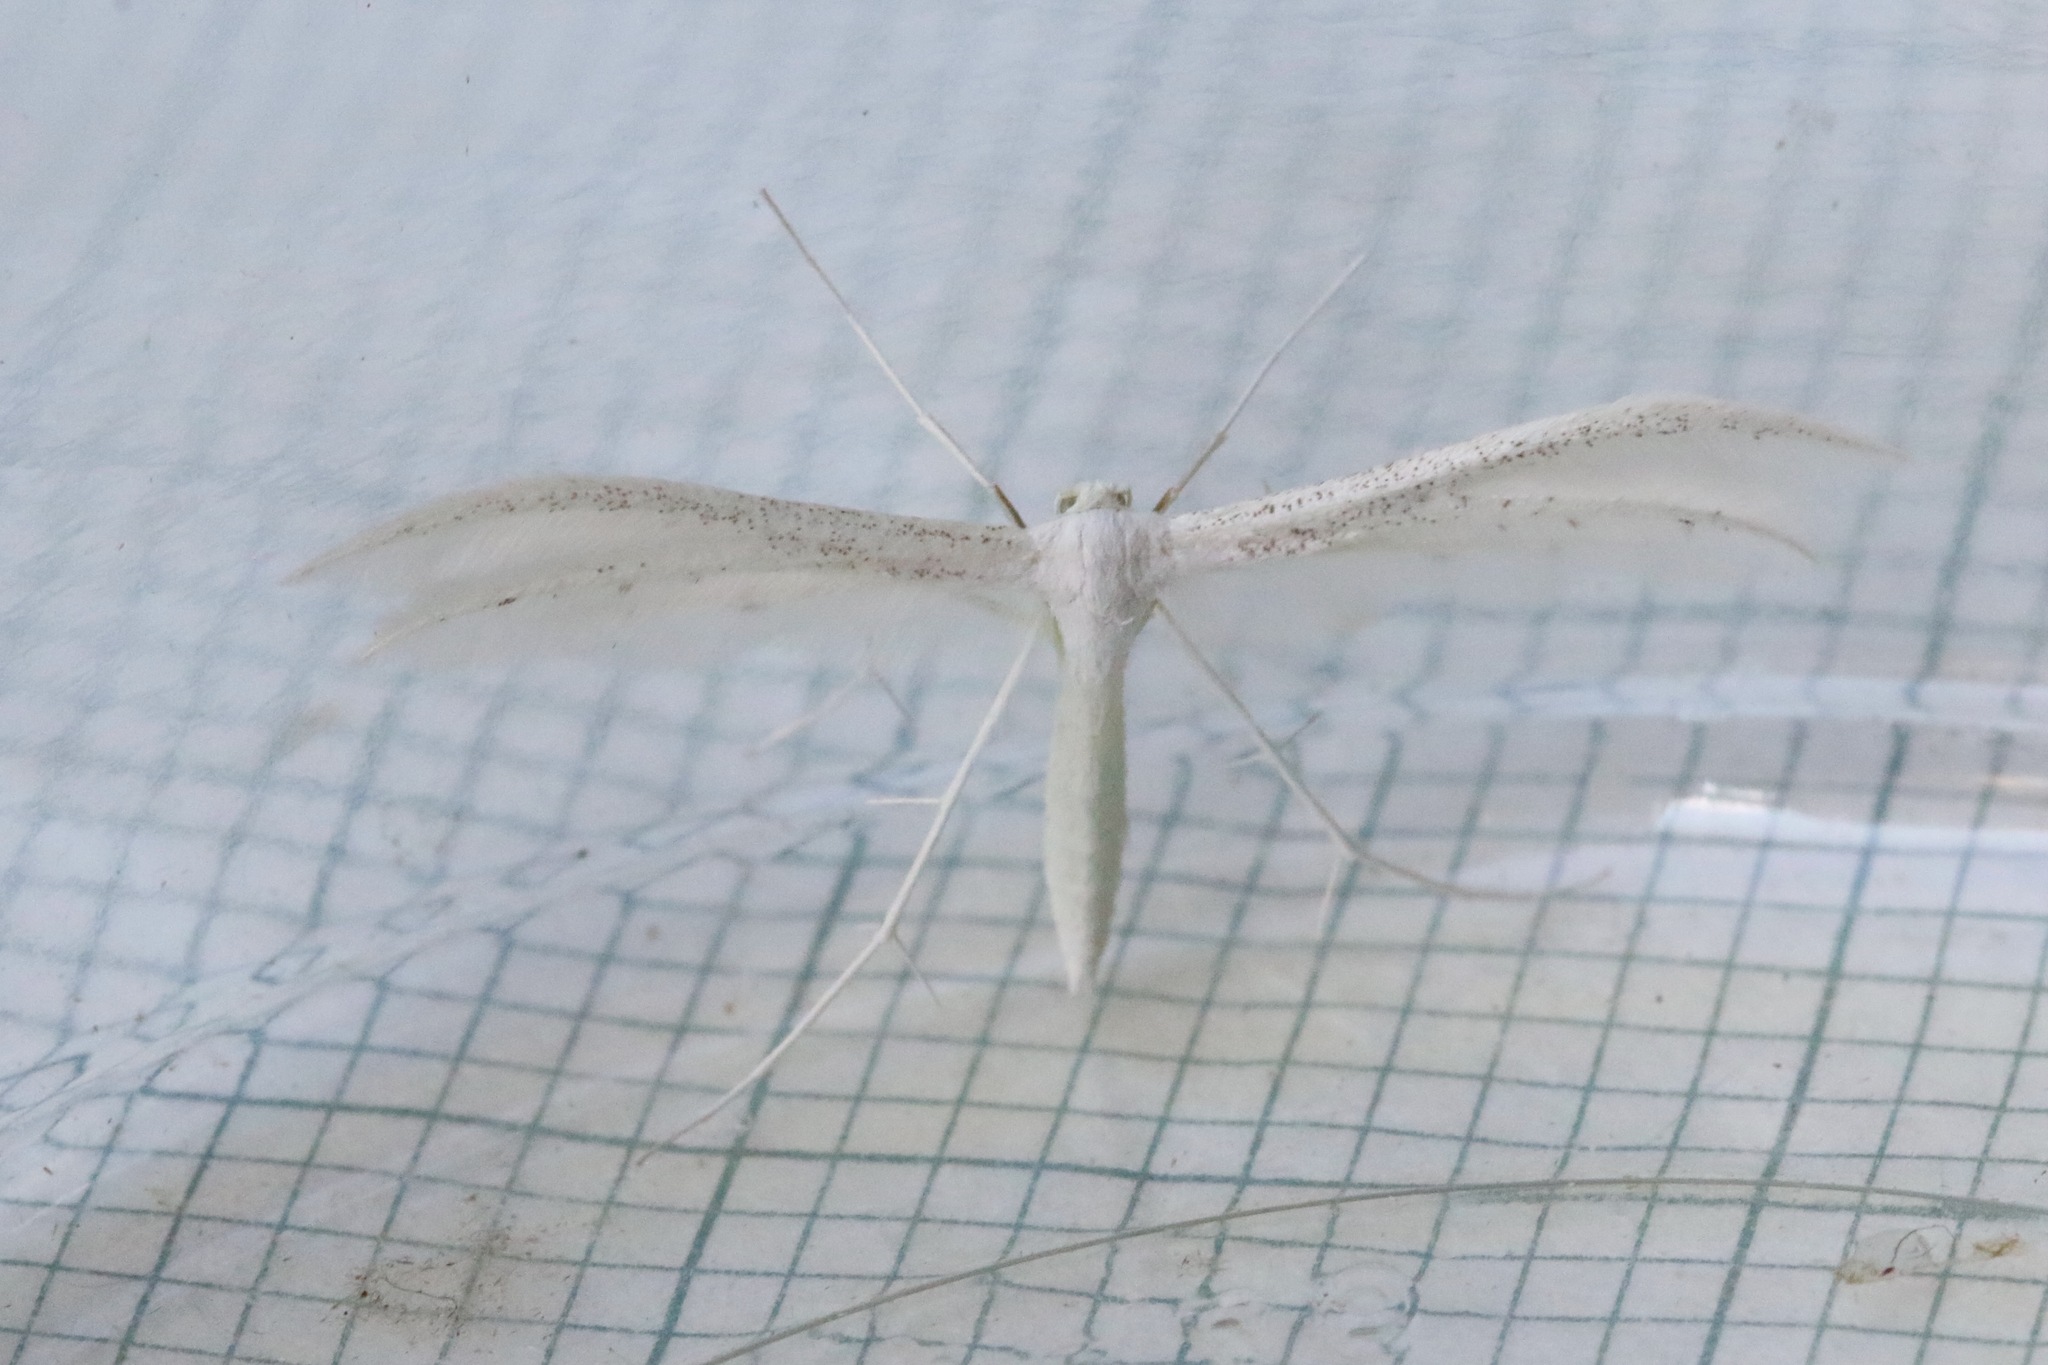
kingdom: Animalia
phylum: Arthropoda
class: Insecta
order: Lepidoptera
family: Pterophoridae
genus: Pterophorus
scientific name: Pterophorus pentadactyla
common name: White plume moth
